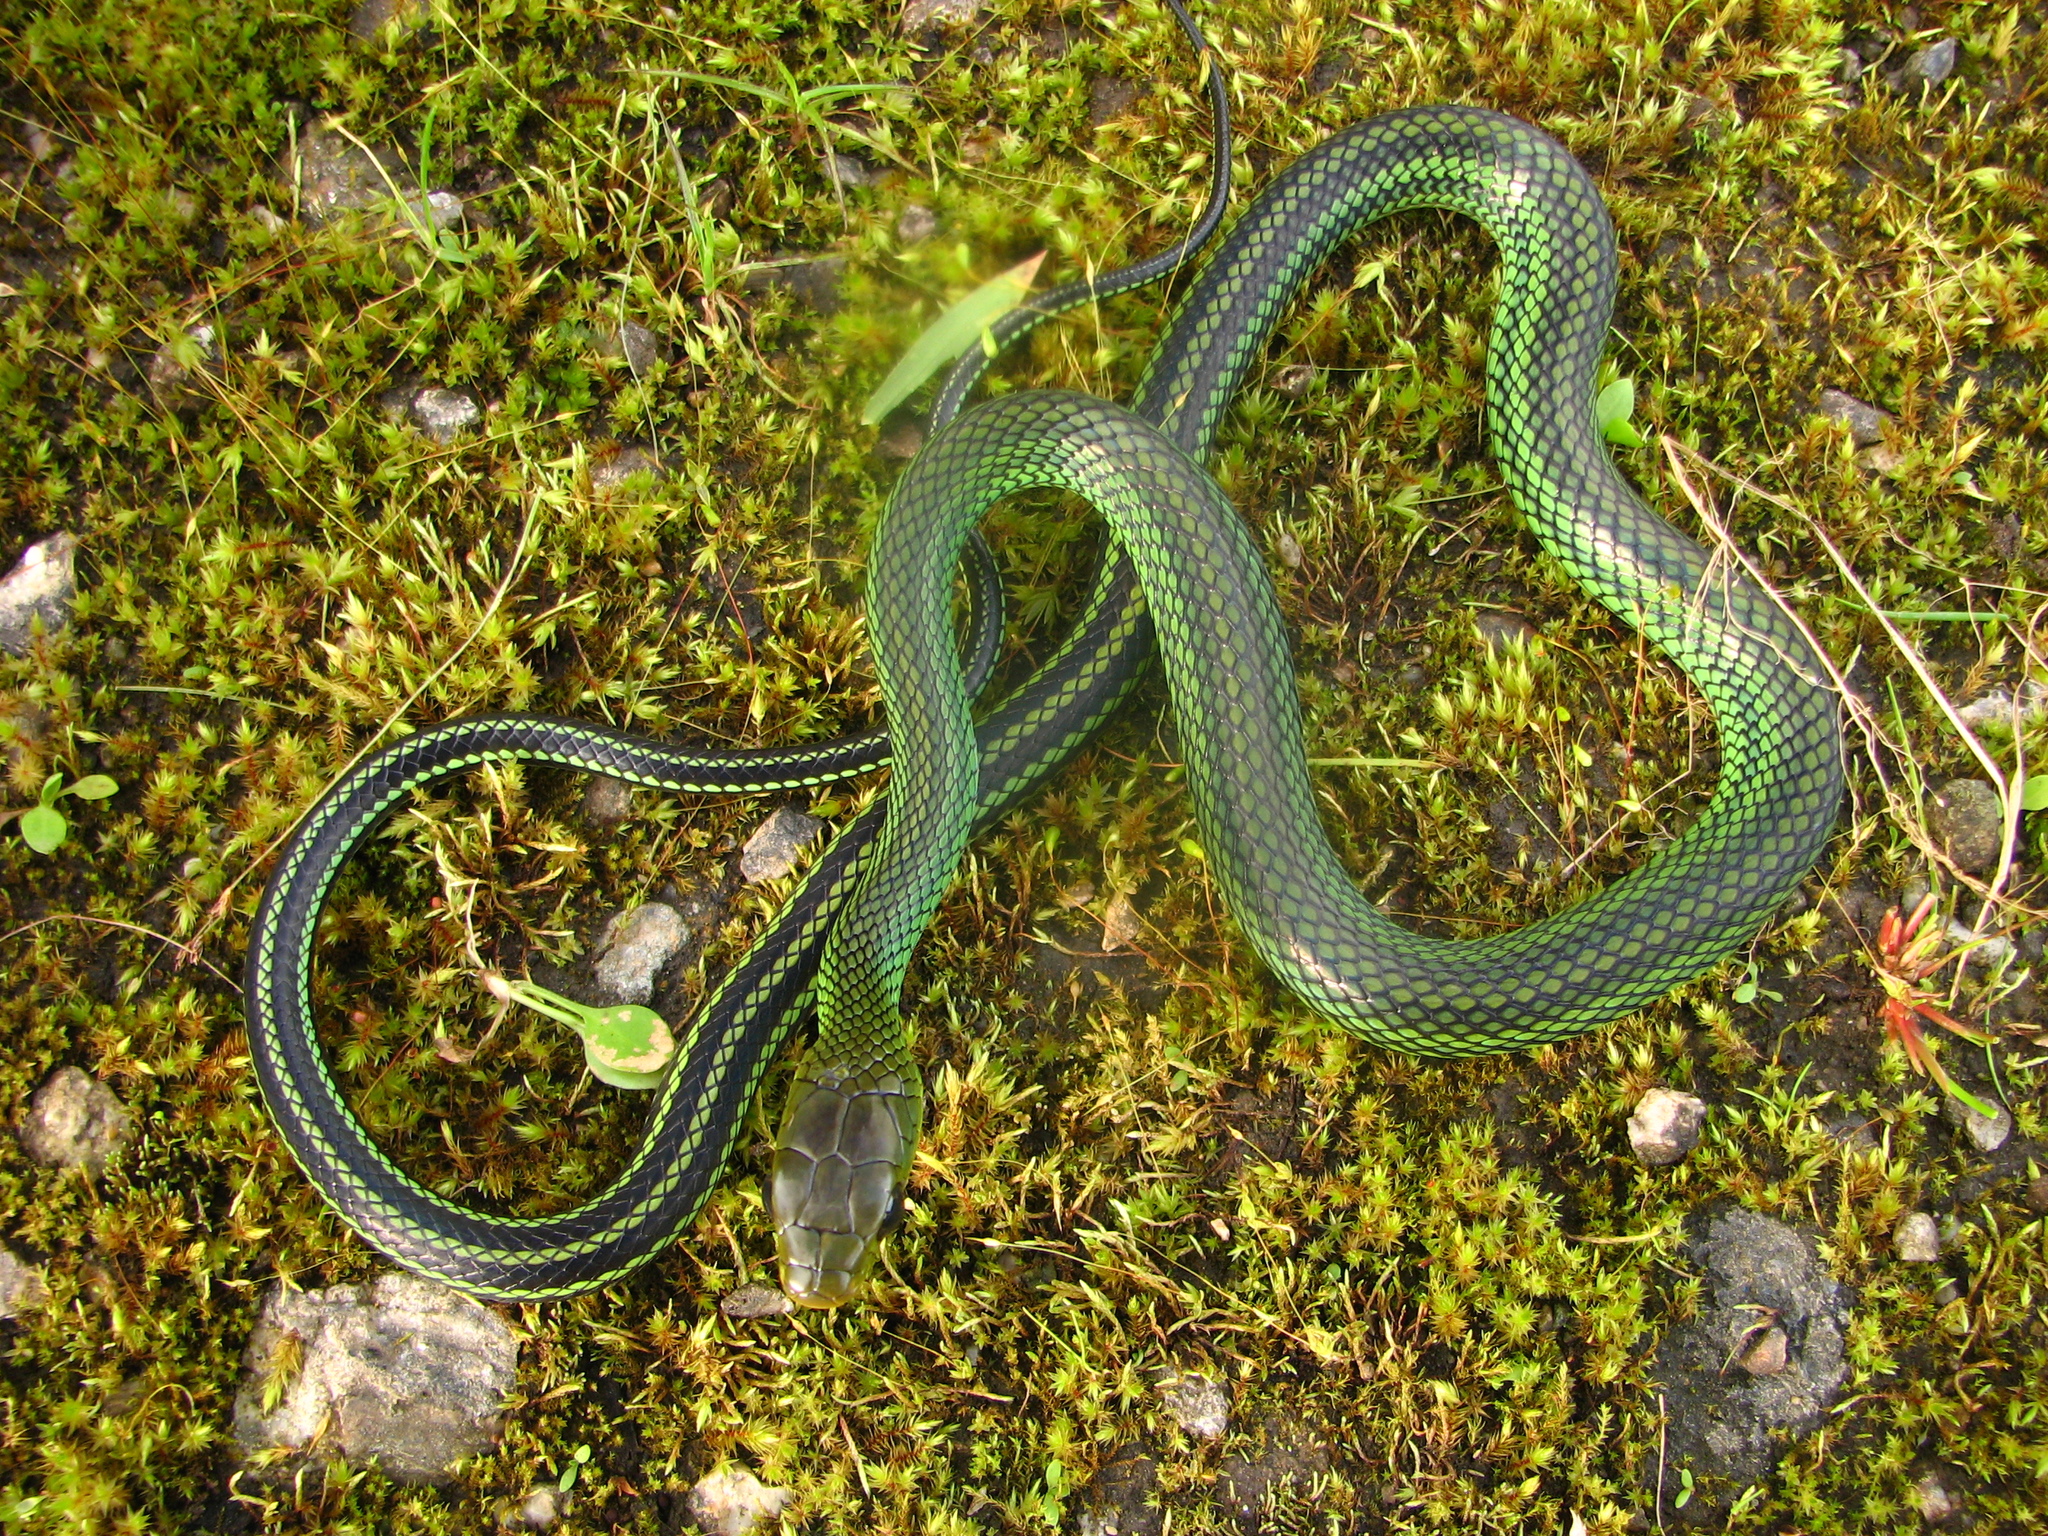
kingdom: Animalia
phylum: Chordata
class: Squamata
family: Colubridae
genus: Ptyas
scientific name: Ptyas nigromarginata
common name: Black-bordered rat snake
